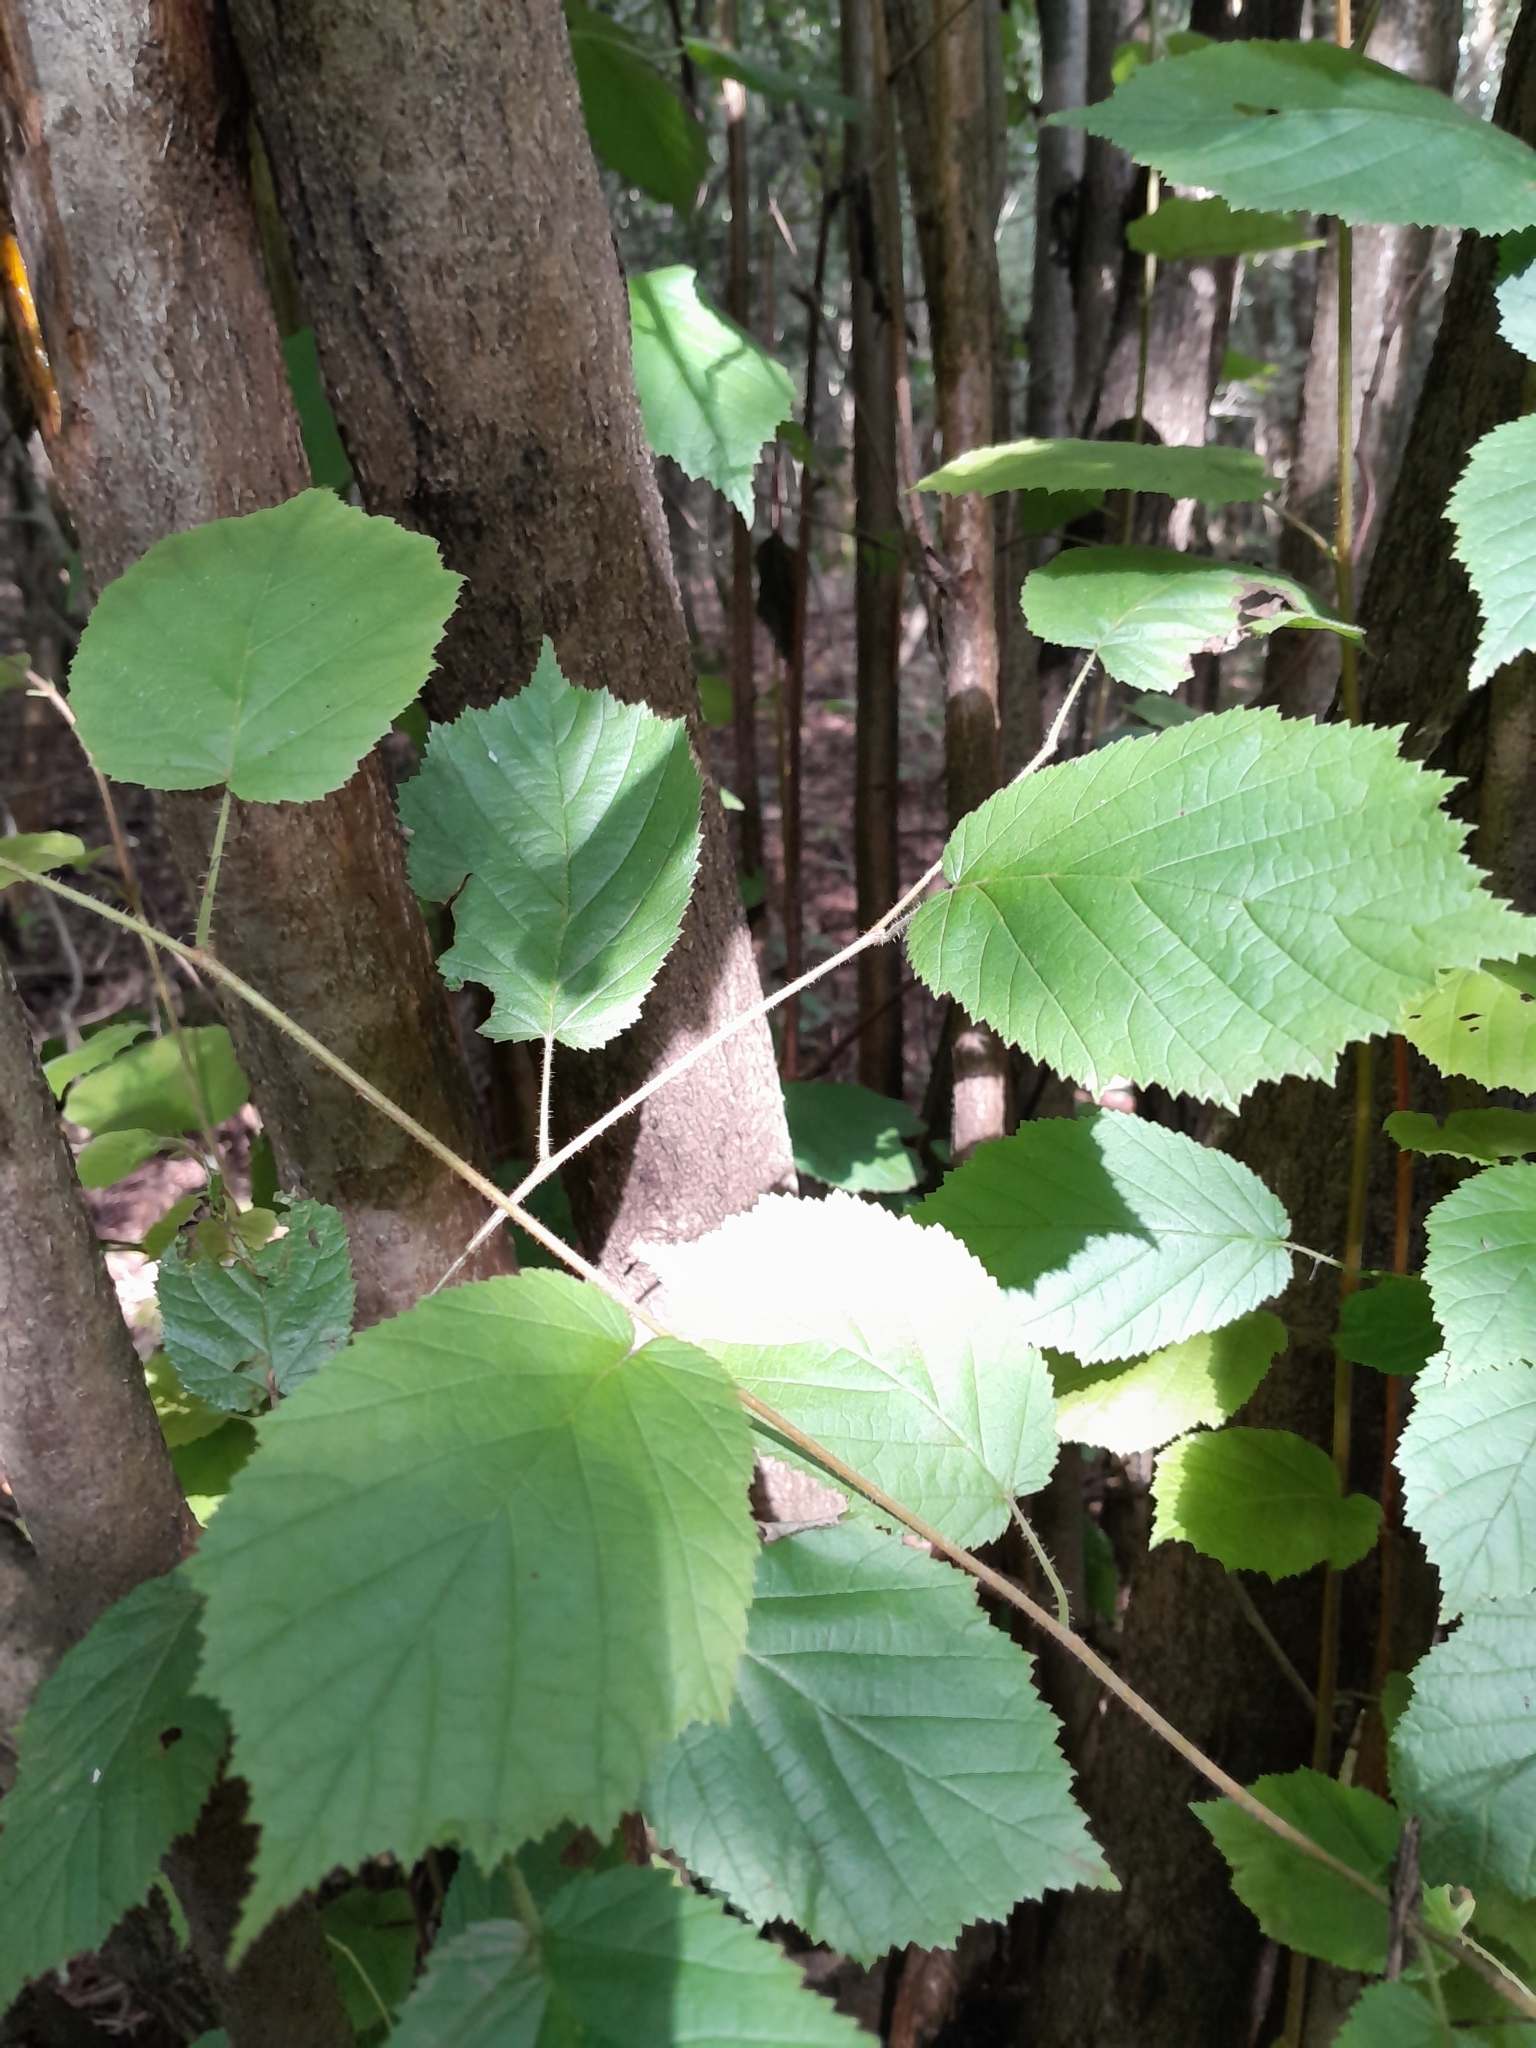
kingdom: Plantae
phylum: Tracheophyta
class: Magnoliopsida
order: Fagales
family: Betulaceae
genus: Corylus
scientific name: Corylus avellana
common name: European hazel
